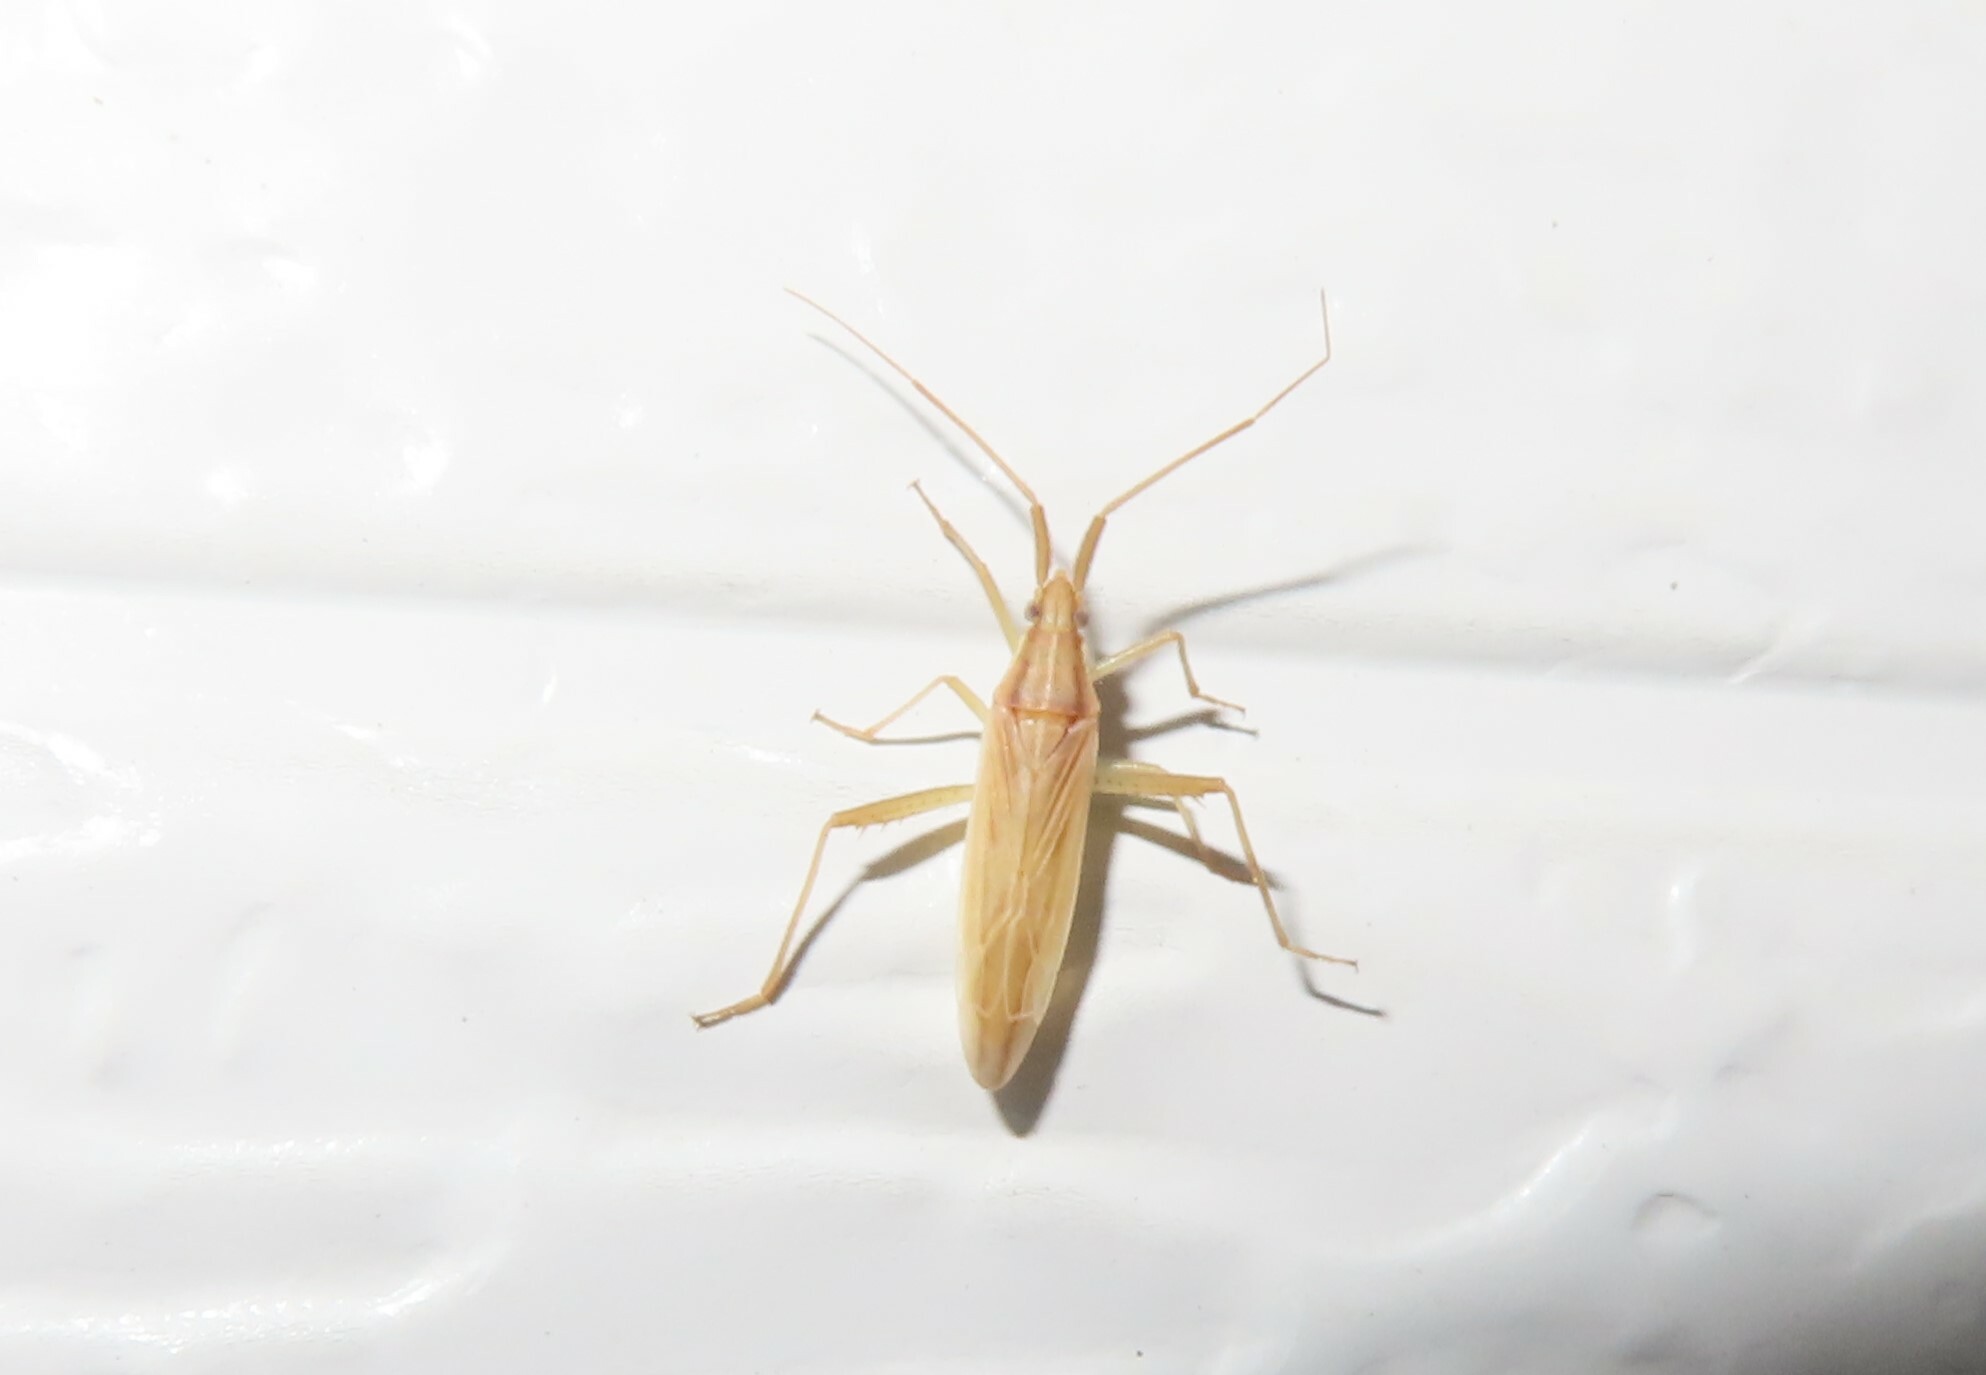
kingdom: Animalia
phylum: Arthropoda
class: Insecta
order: Hemiptera
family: Miridae
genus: Stenodema
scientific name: Stenodema trispinosa
